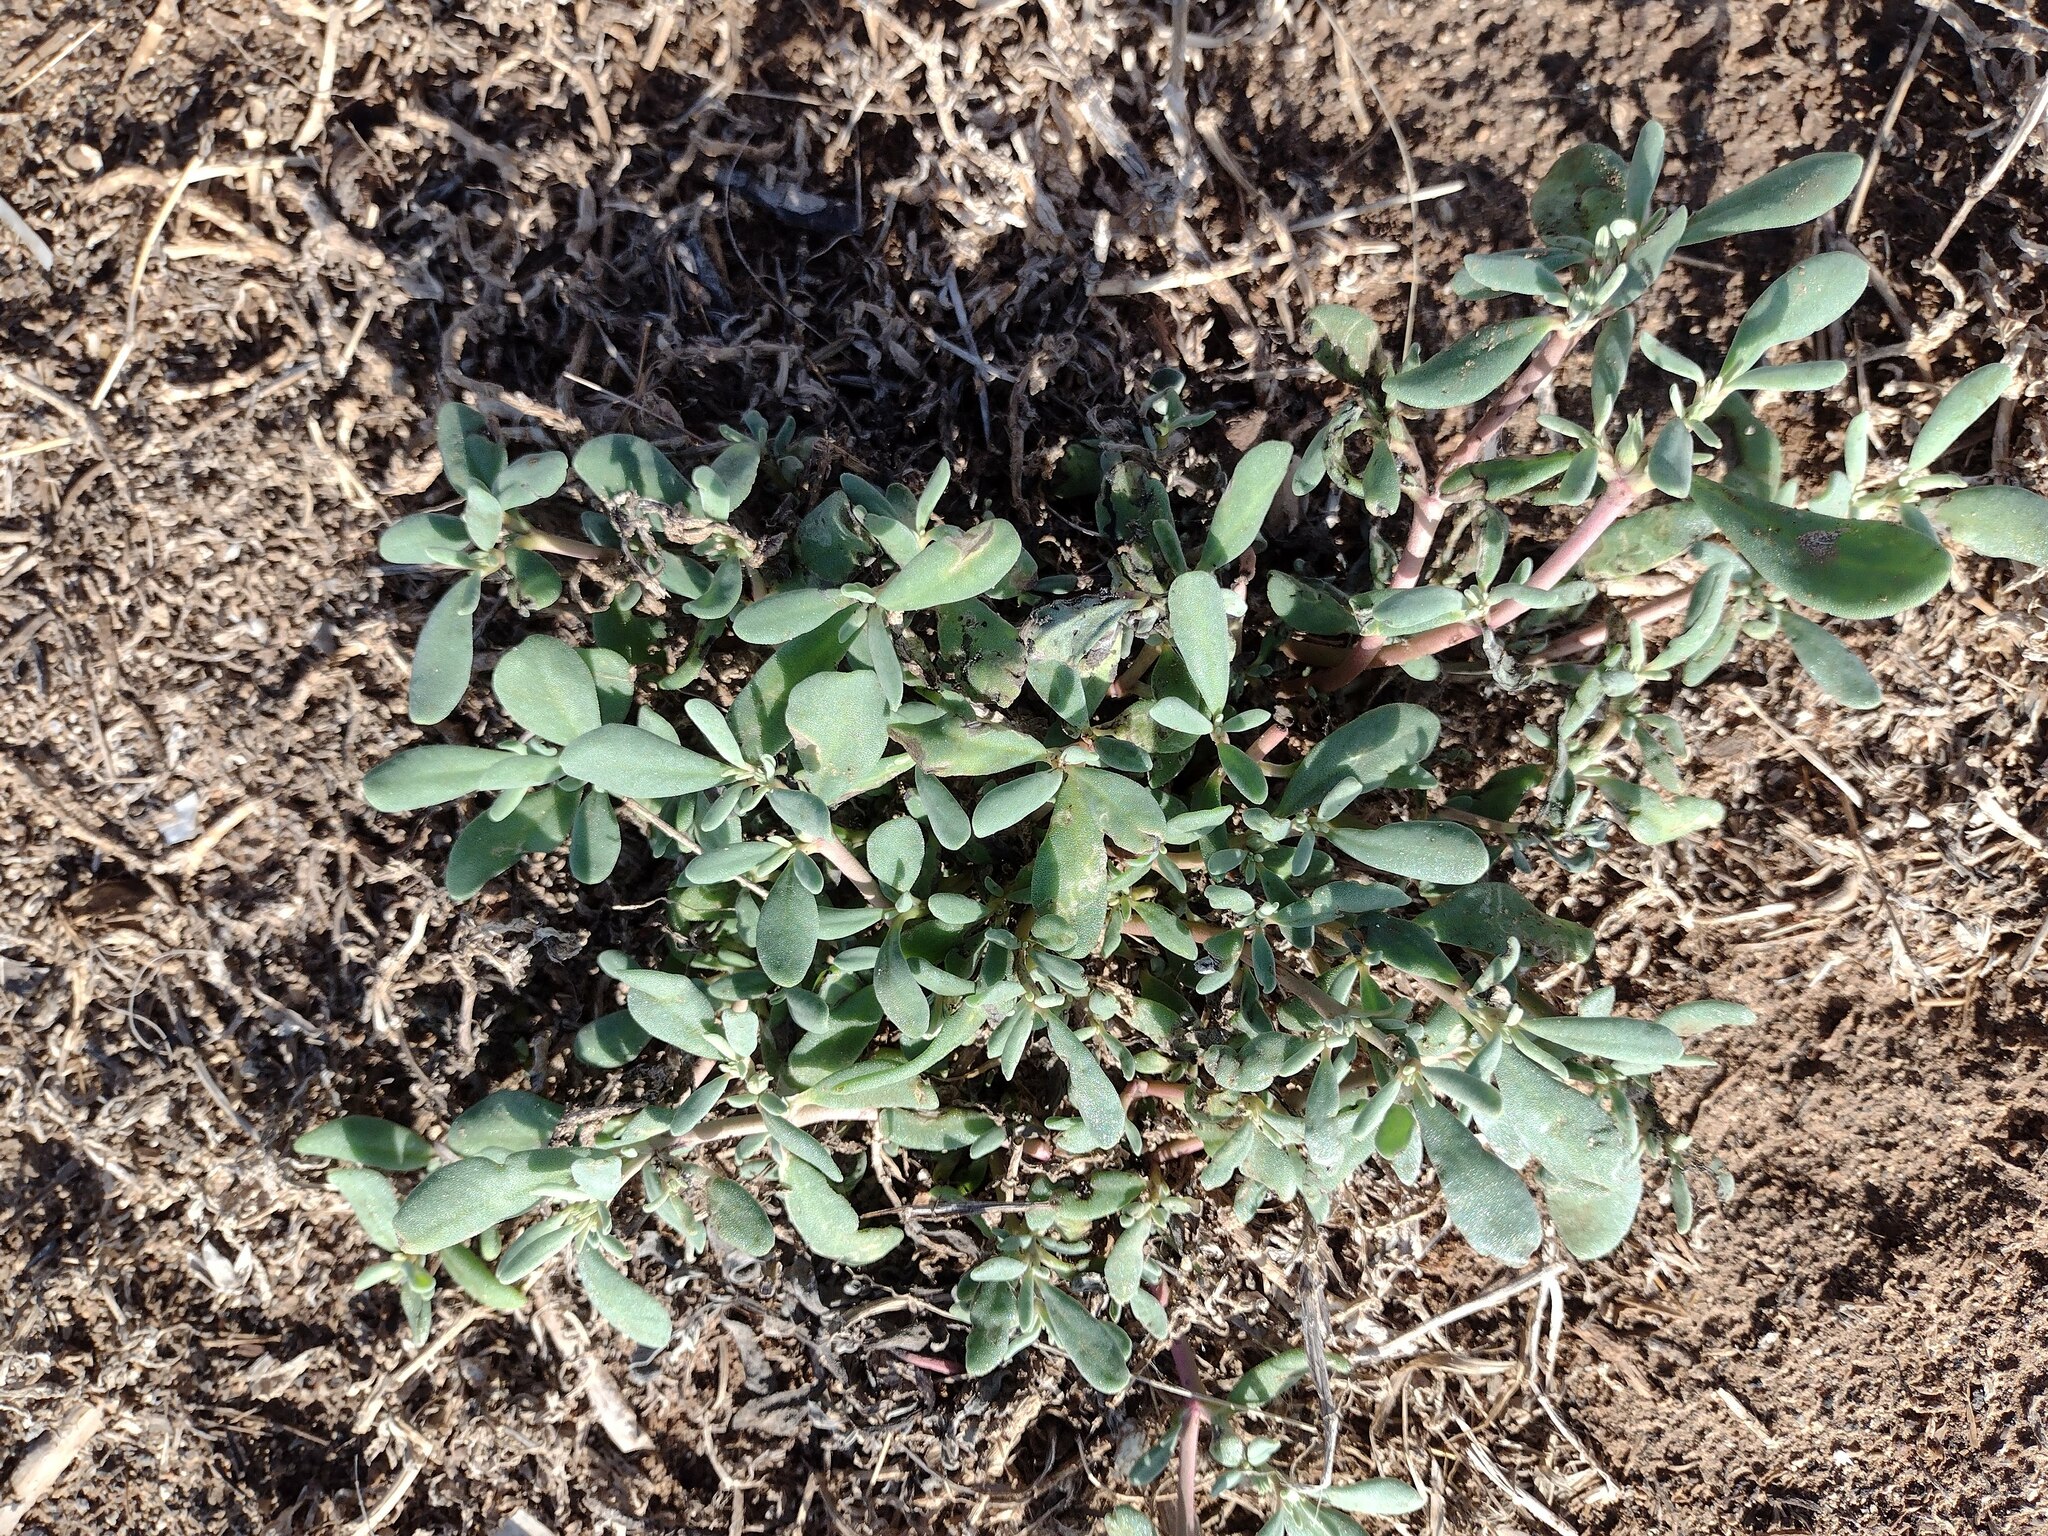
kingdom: Plantae
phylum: Tracheophyta
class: Magnoliopsida
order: Caryophyllales
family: Aizoaceae
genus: Sesuvium
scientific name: Sesuvium revolutifolium
